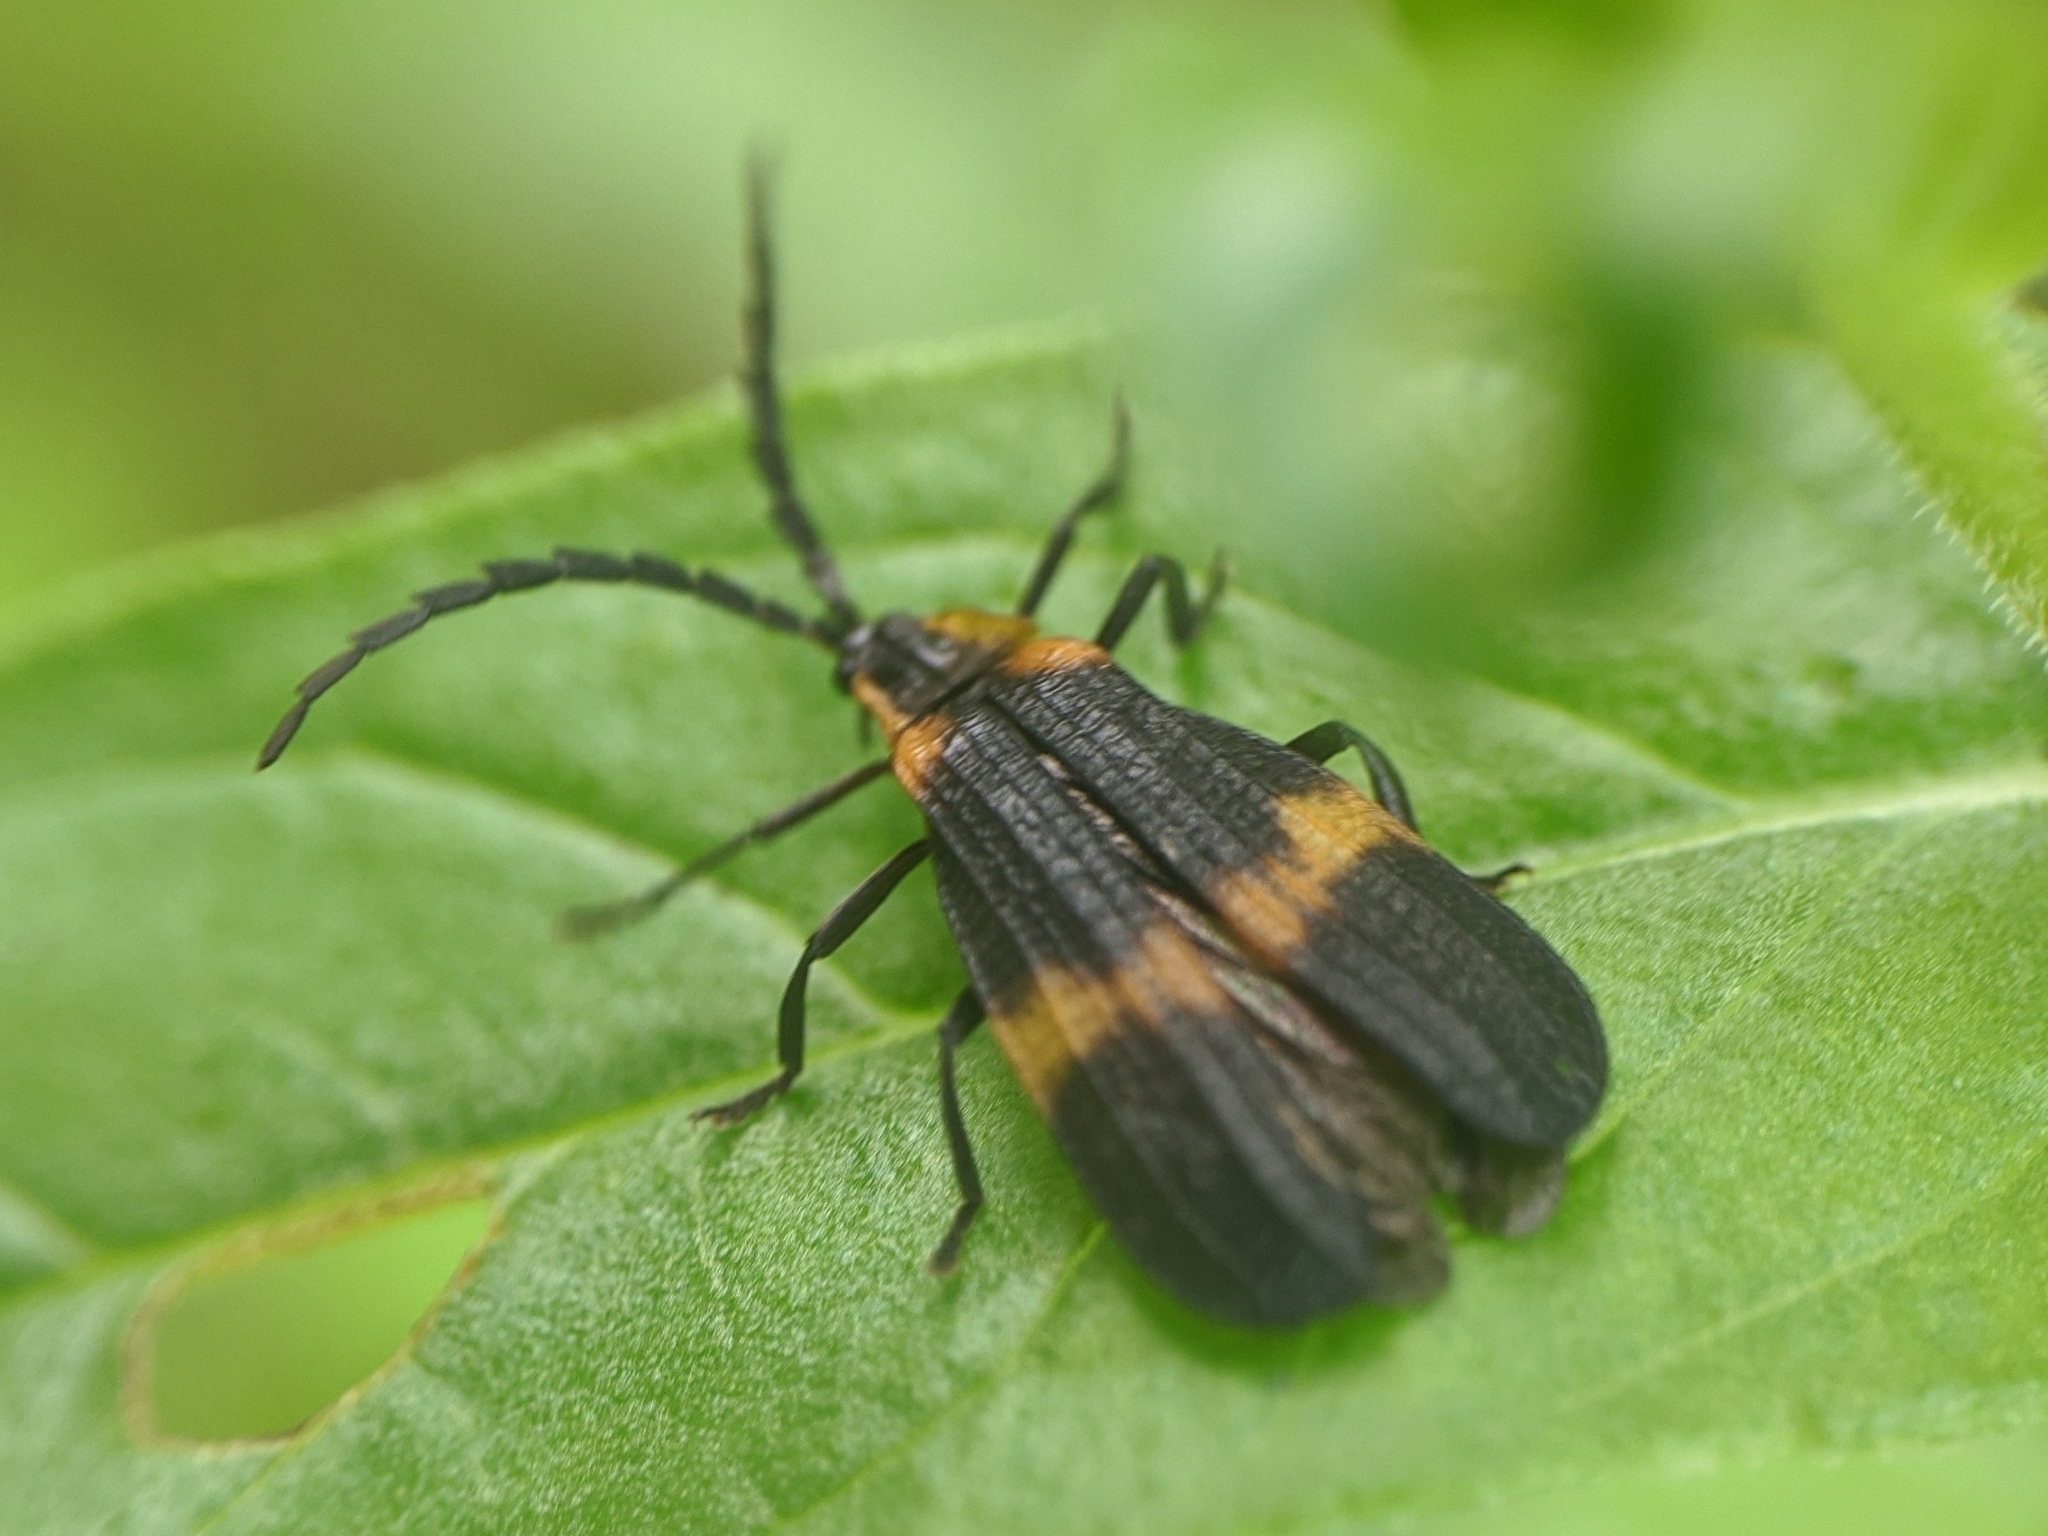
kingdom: Animalia
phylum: Arthropoda
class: Insecta
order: Coleoptera
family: Lycidae
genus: Calopteron
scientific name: Calopteron reticulatum
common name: Banded net-winged beetle
